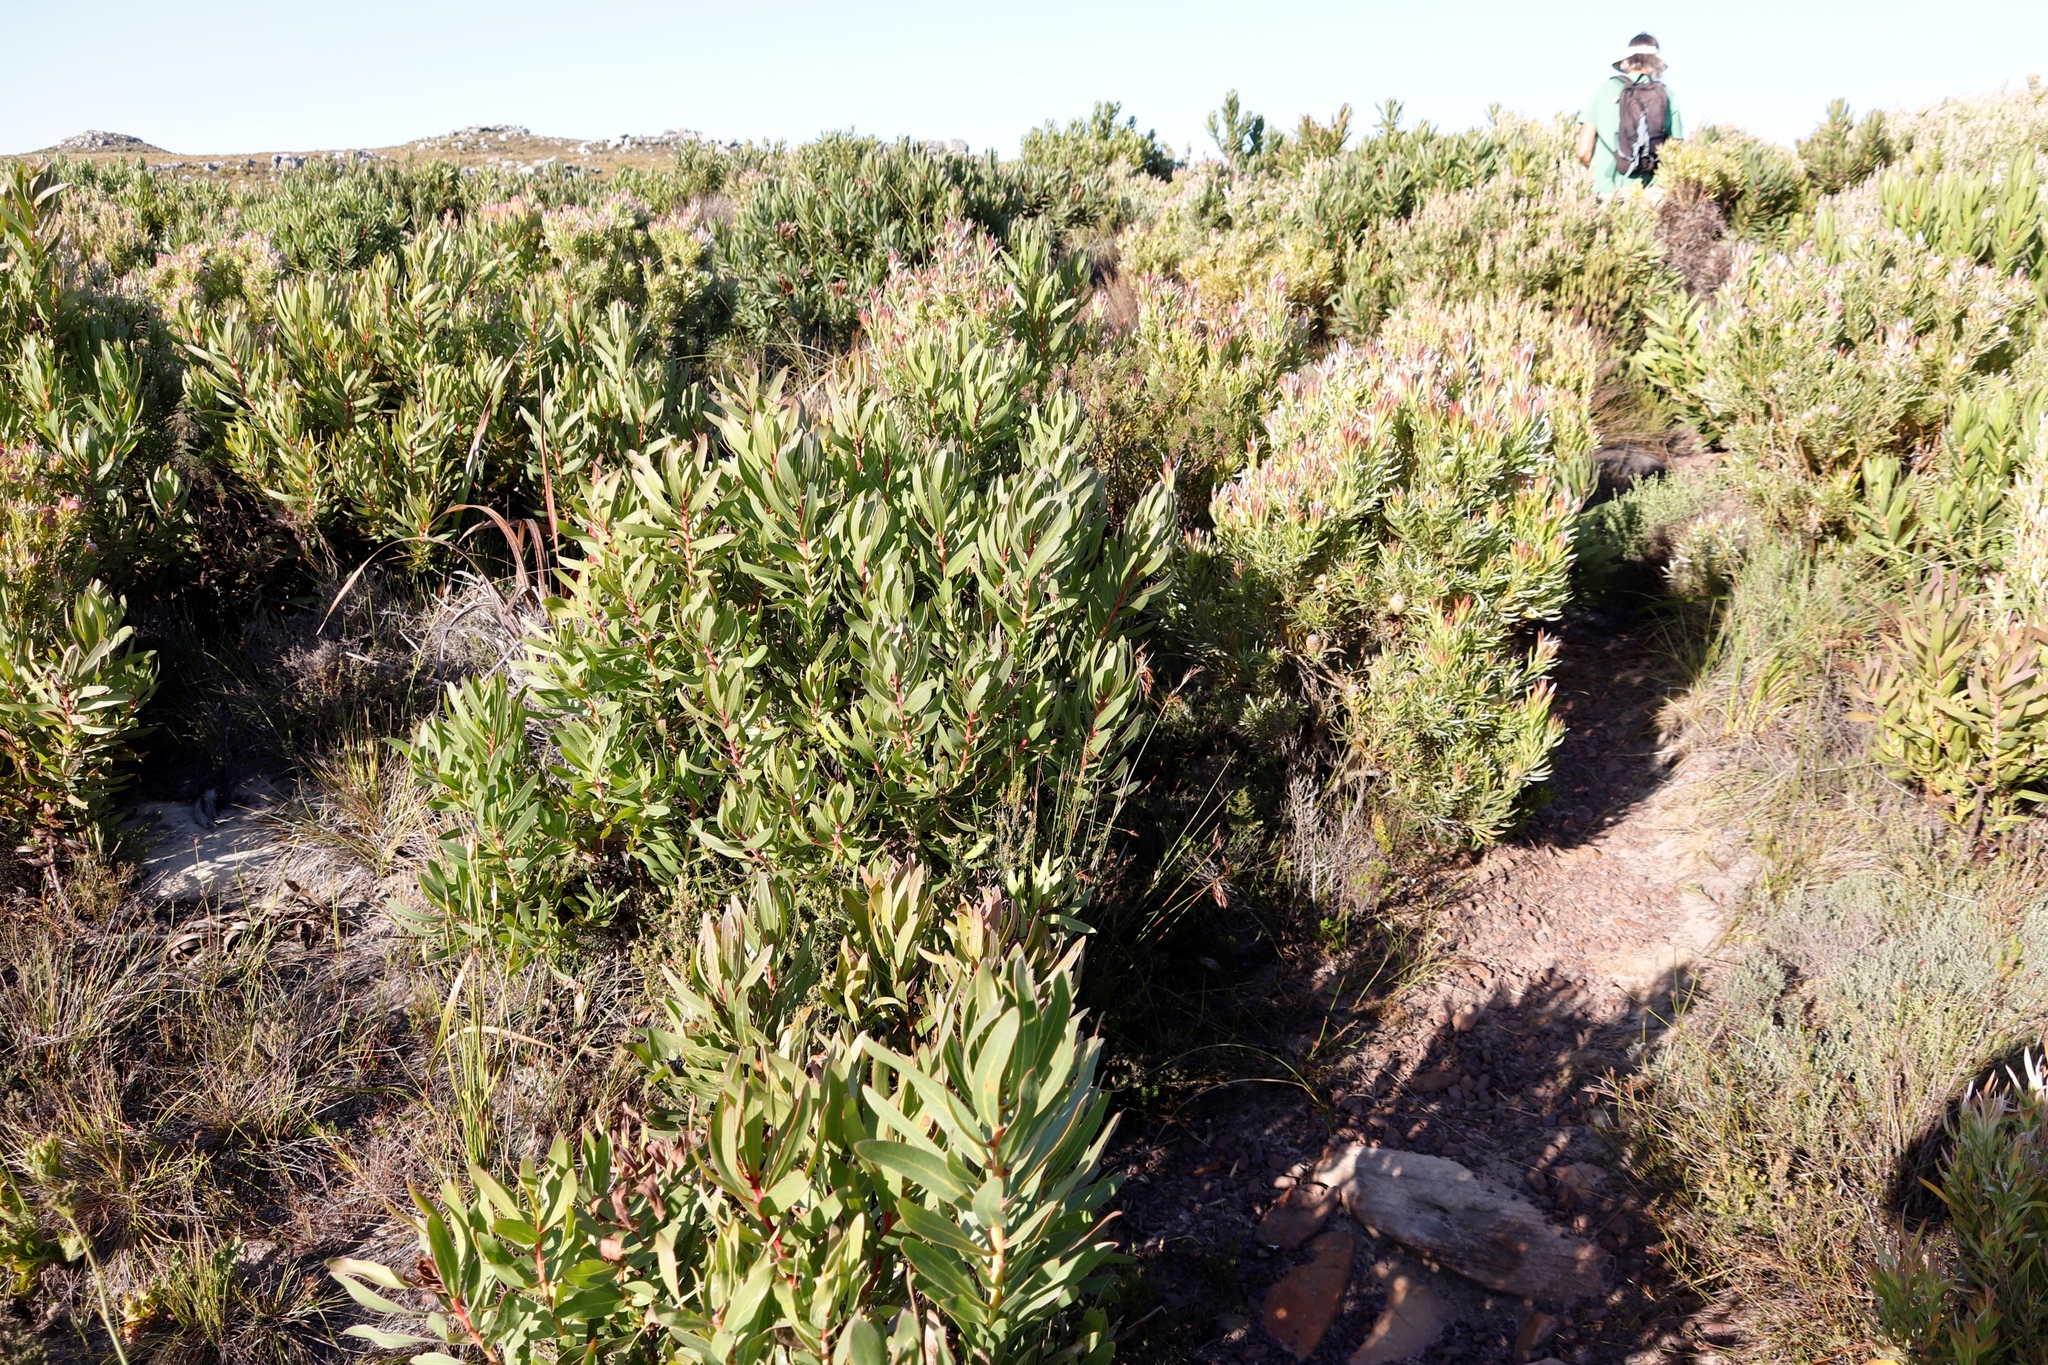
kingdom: Plantae
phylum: Tracheophyta
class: Magnoliopsida
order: Proteales
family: Proteaceae
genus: Leucadendron
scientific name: Leucadendron xanthoconus
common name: Sickle-leaf conebush
